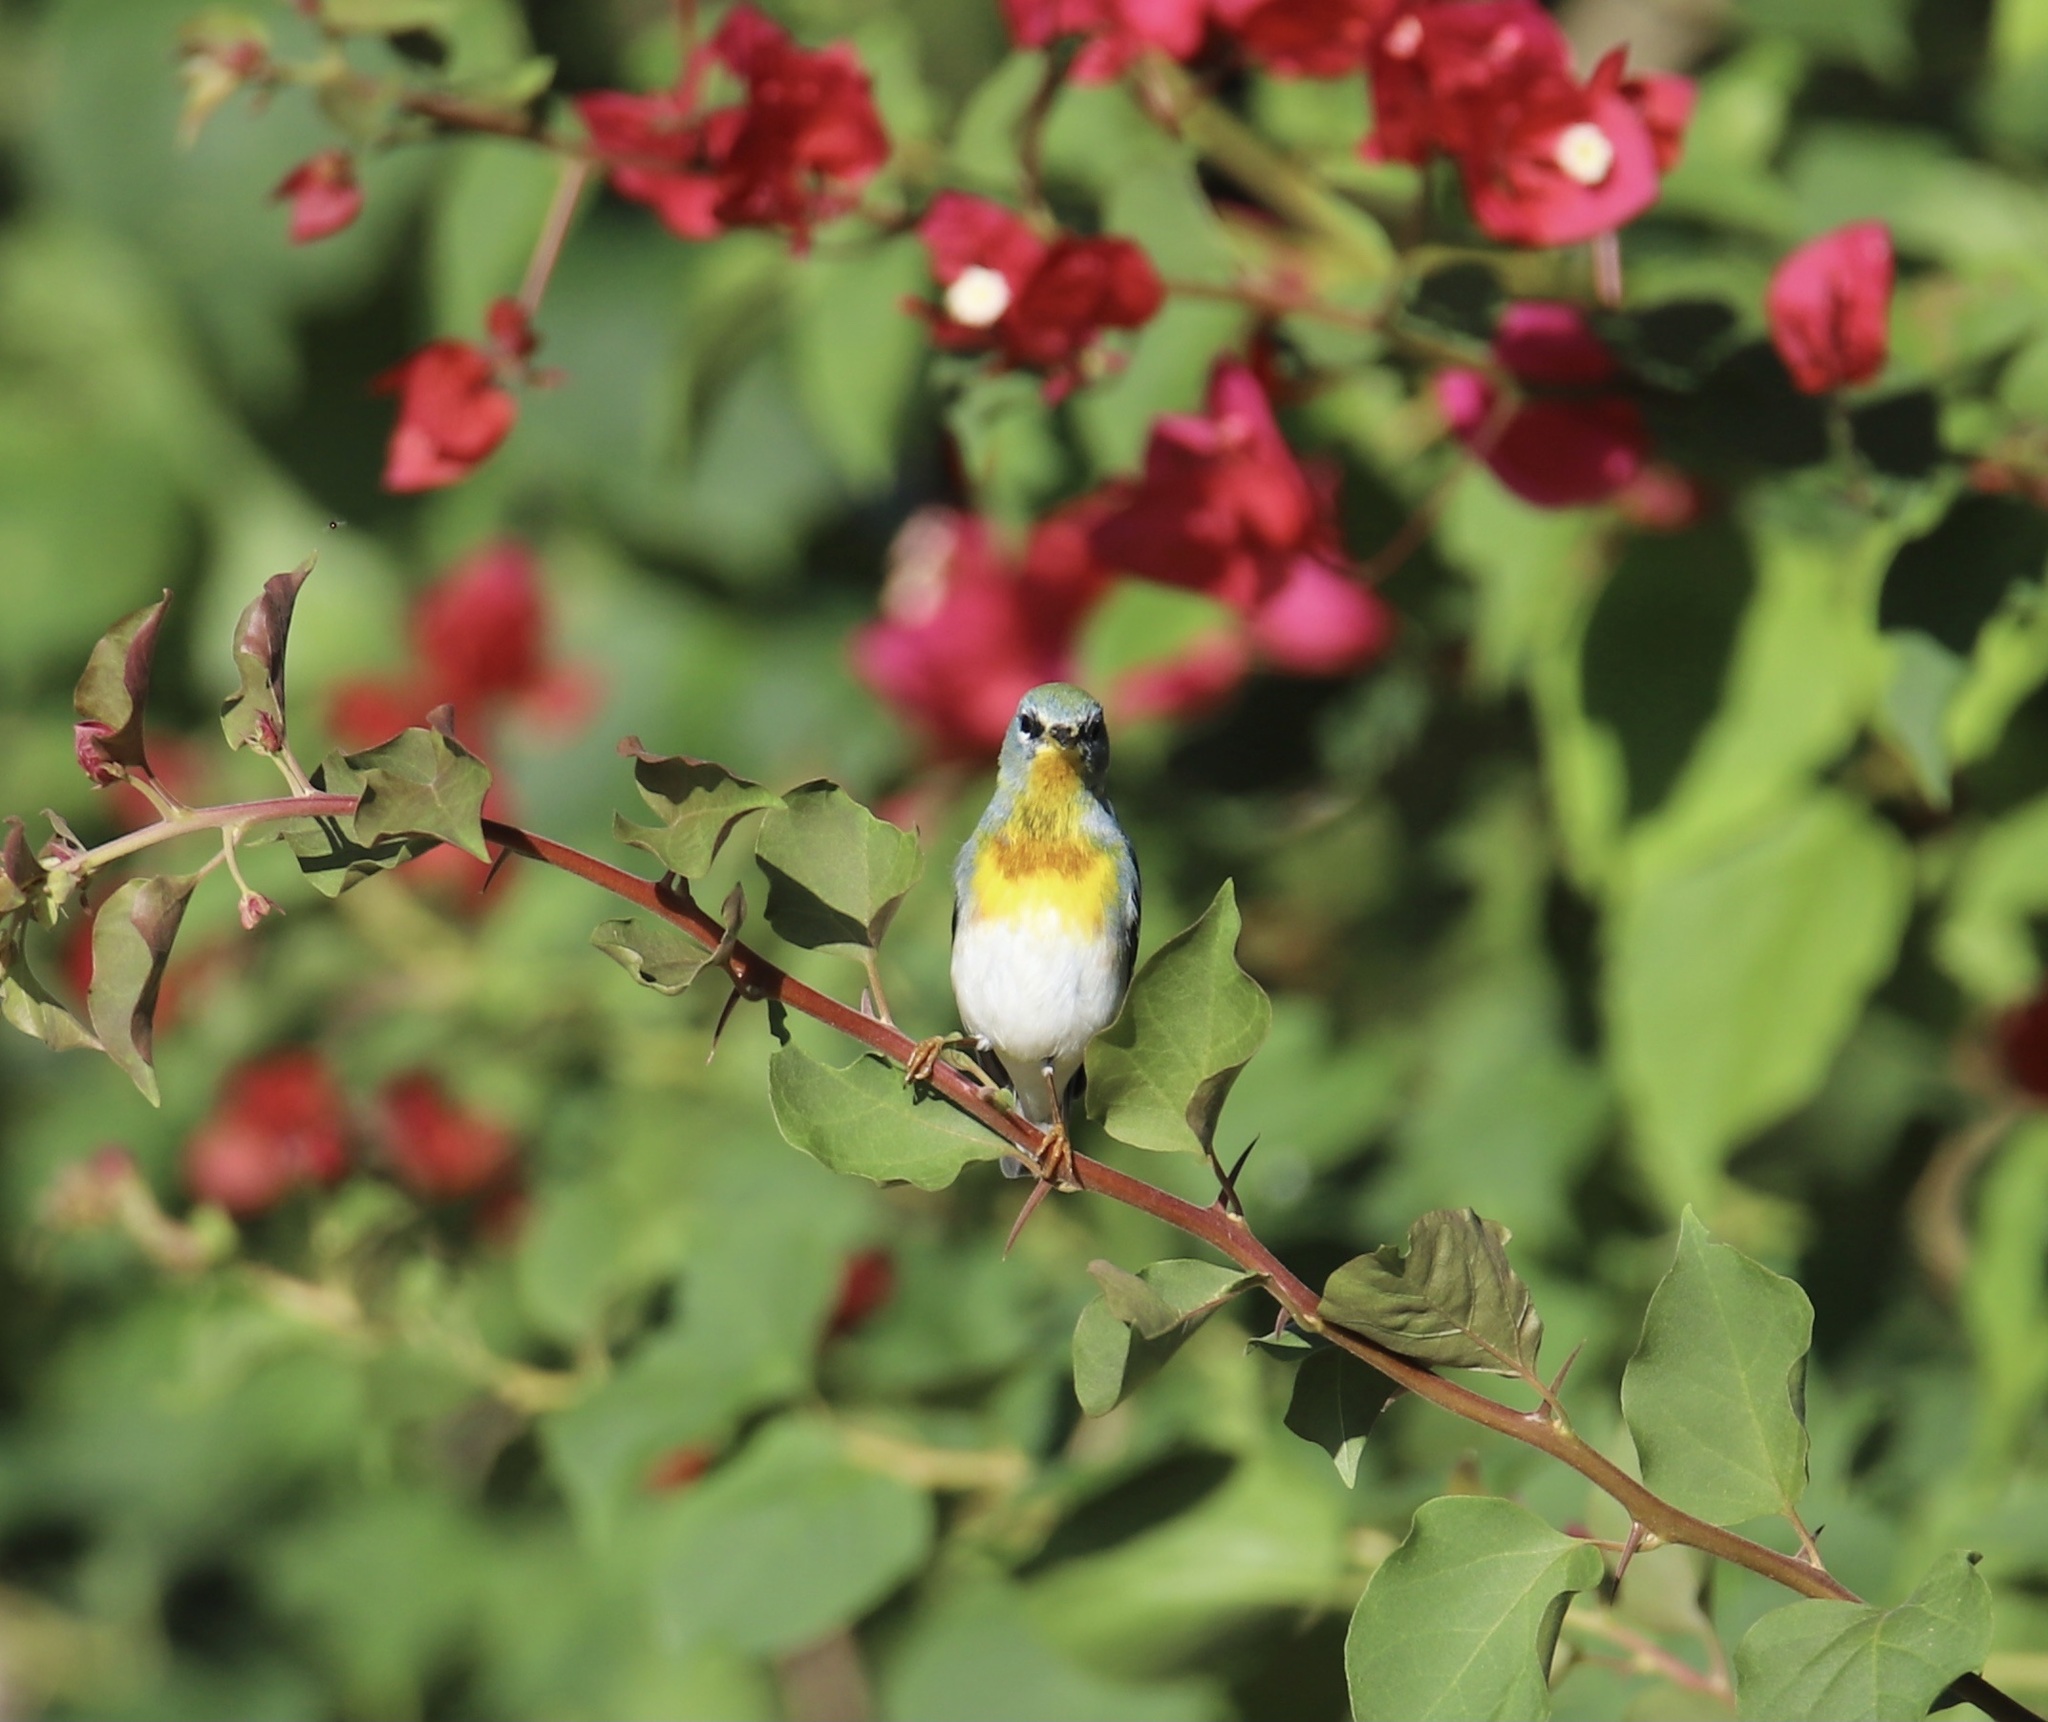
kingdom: Animalia
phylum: Chordata
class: Aves
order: Passeriformes
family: Parulidae
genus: Setophaga
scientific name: Setophaga americana
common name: Northern parula
